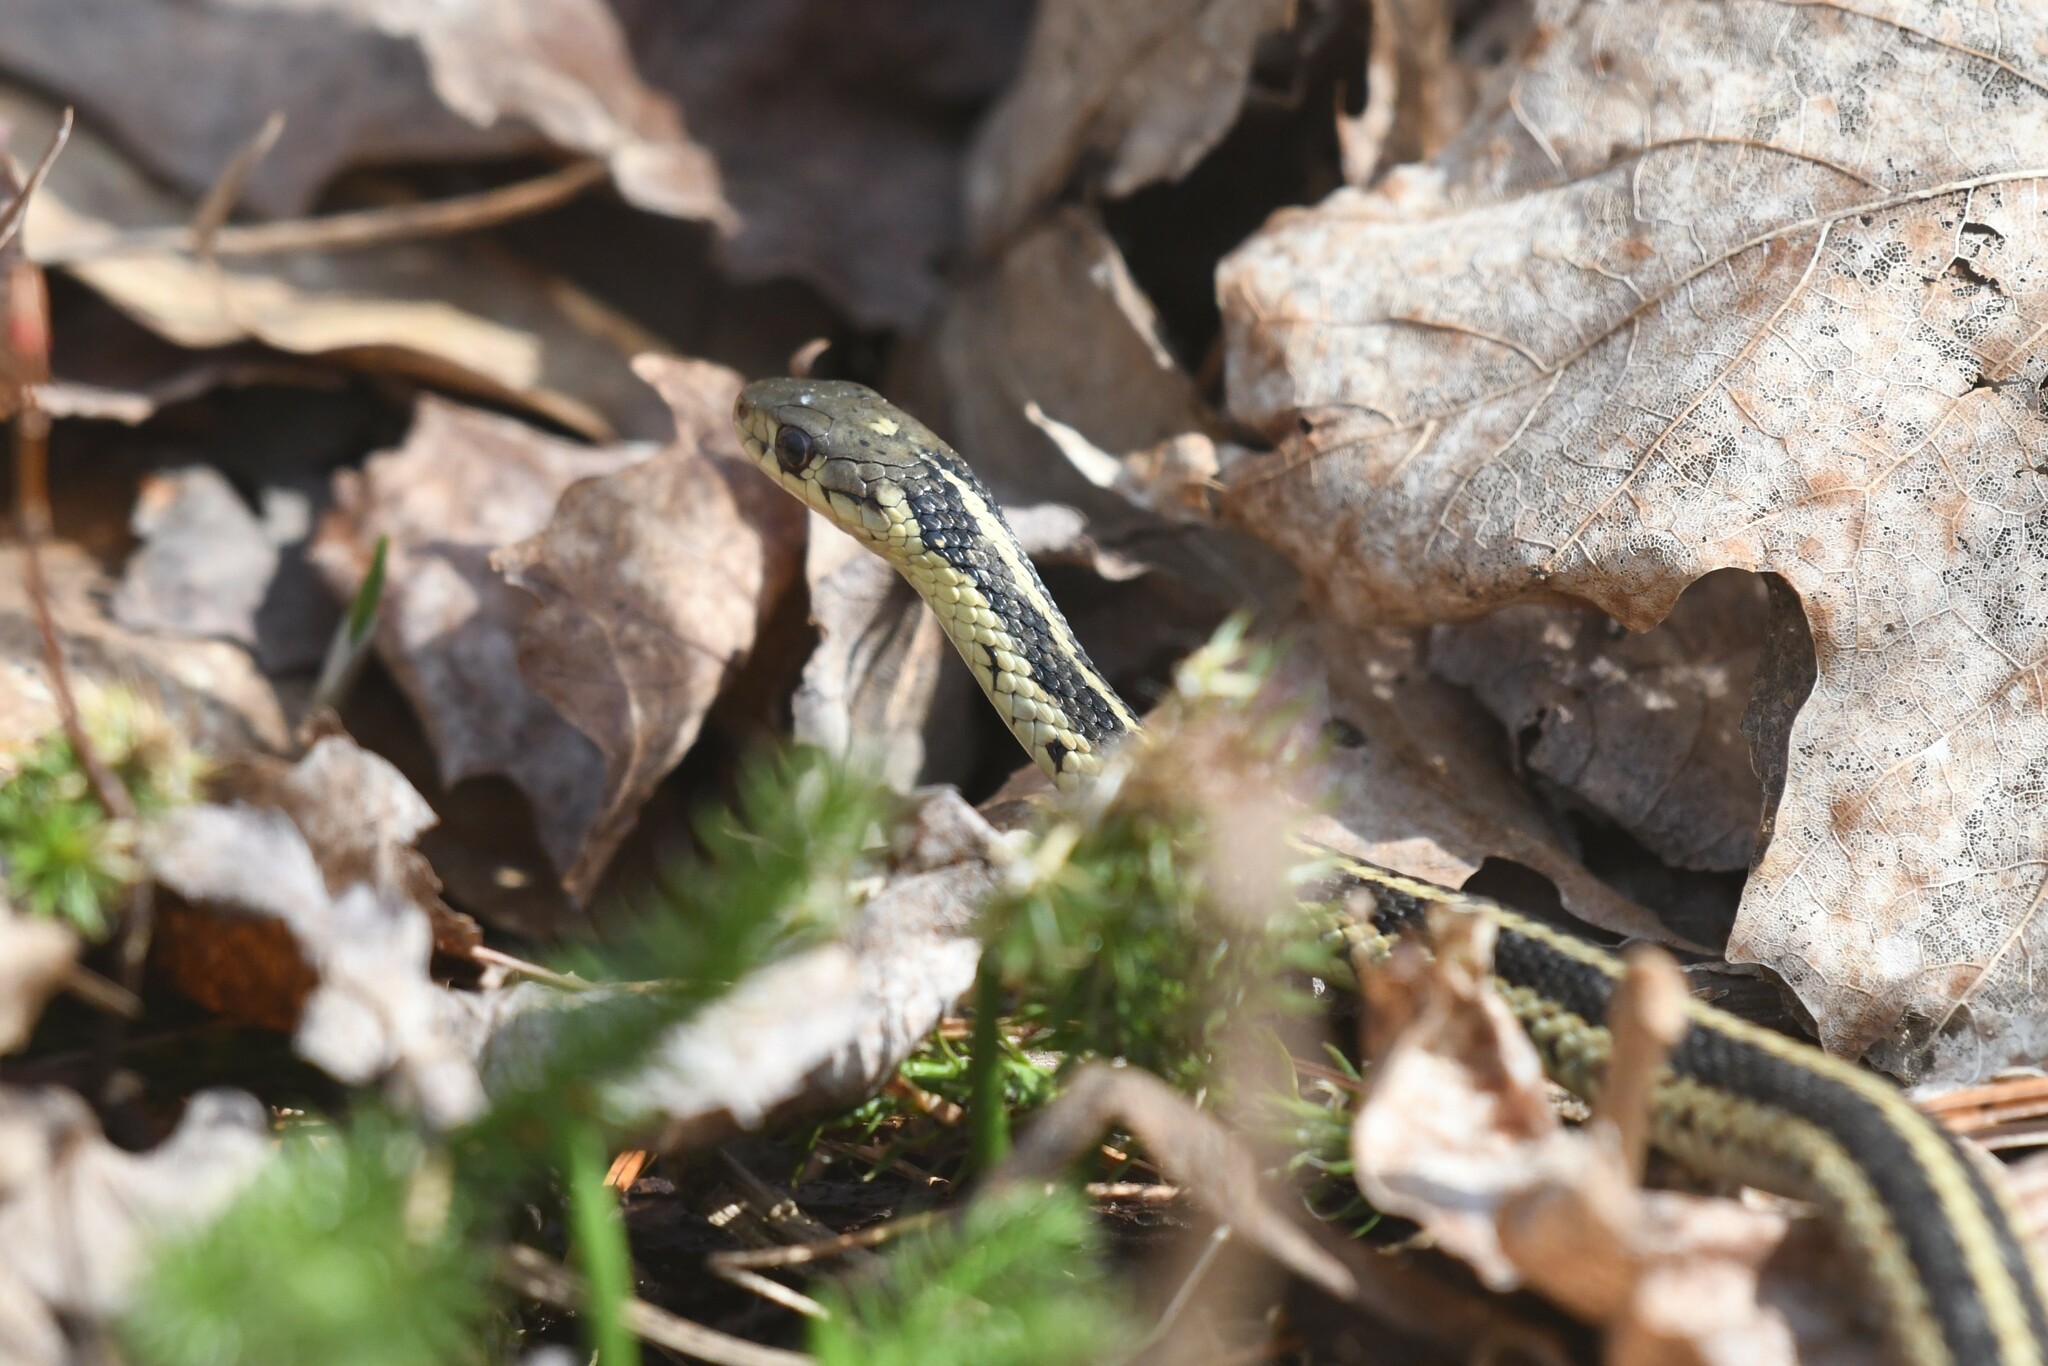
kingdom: Animalia
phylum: Chordata
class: Squamata
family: Colubridae
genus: Thamnophis
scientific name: Thamnophis sirtalis
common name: Common garter snake
